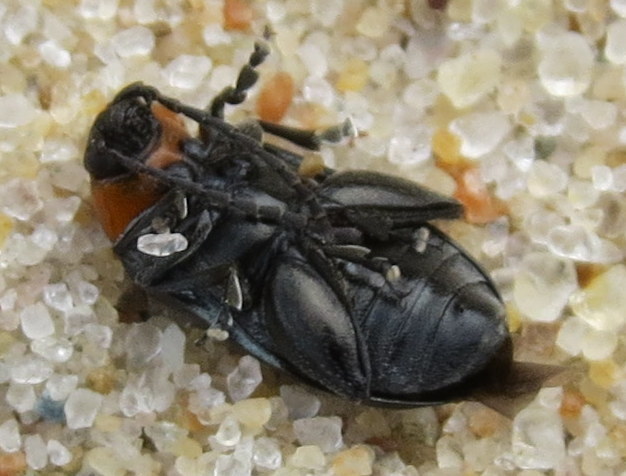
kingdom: Animalia
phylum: Arthropoda
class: Insecta
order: Coleoptera
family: Chrysomelidae
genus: Disonycha
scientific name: Disonycha triangularis
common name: Three-spotted flea beetle
